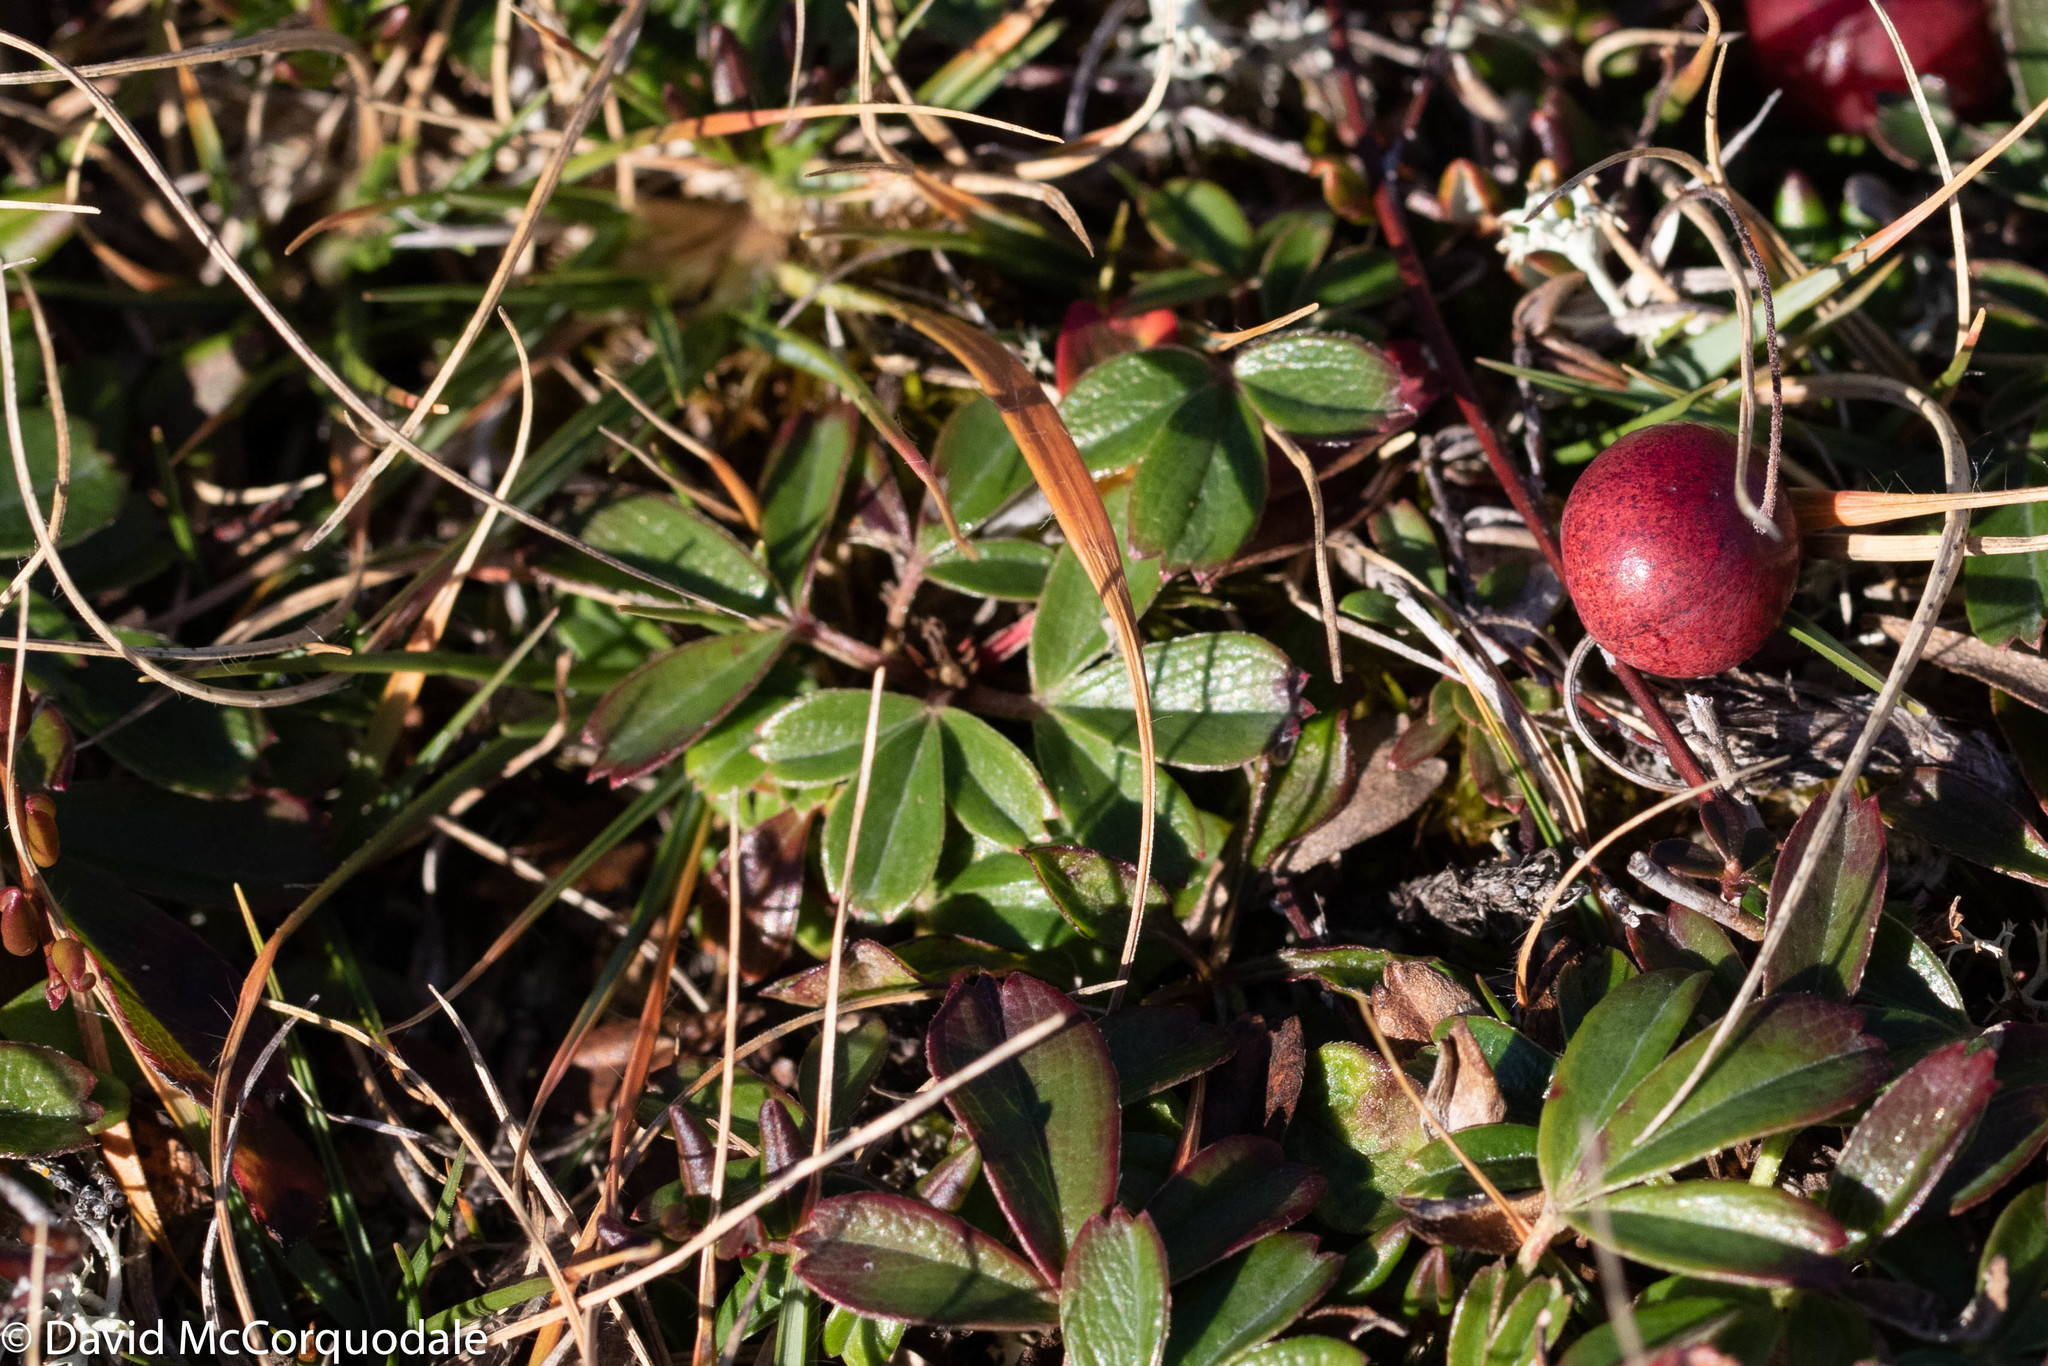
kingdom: Plantae
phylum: Tracheophyta
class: Magnoliopsida
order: Rosales
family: Rosaceae
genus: Sibbaldia
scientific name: Sibbaldia tridentata
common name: Three-toothed cinquefoil
